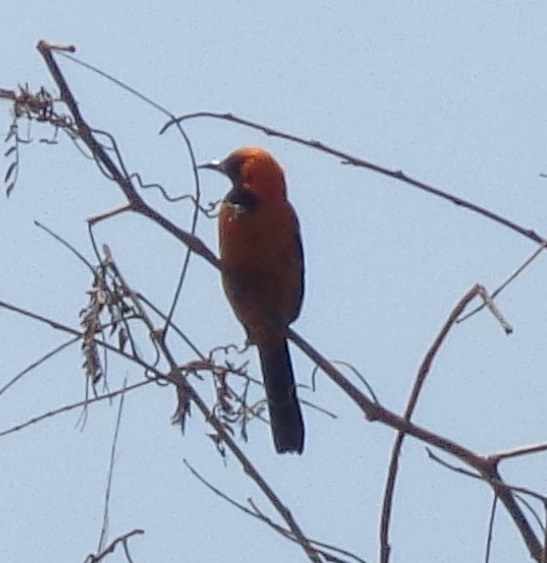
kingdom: Animalia
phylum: Chordata
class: Aves
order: Passeriformes
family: Icteridae
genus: Icterus
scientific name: Icterus cucullatus
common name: Hooded oriole
